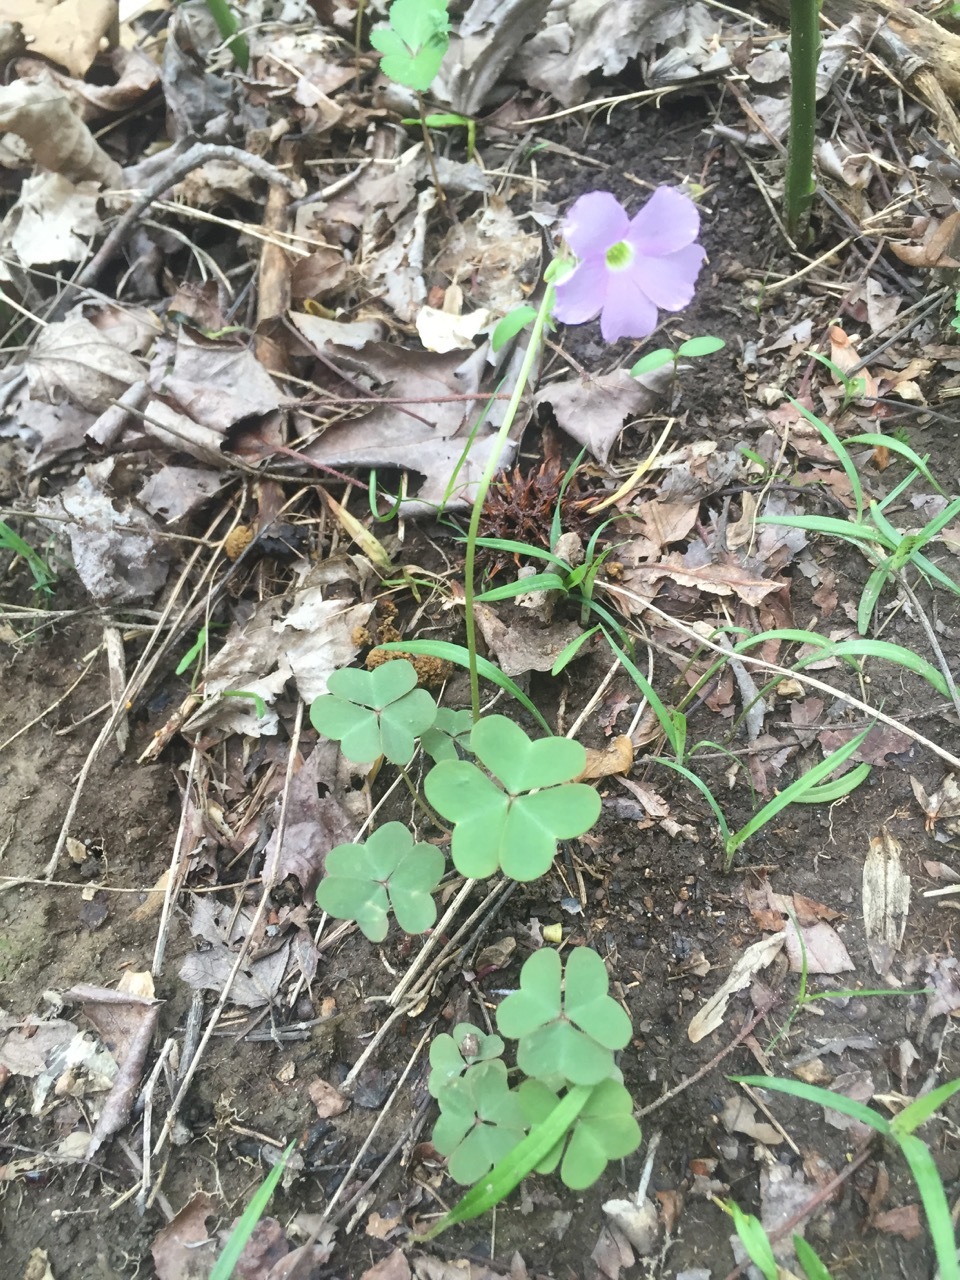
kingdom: Plantae
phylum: Tracheophyta
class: Magnoliopsida
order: Oxalidales
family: Oxalidaceae
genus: Oxalis
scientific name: Oxalis violacea
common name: Violet wood-sorrel
